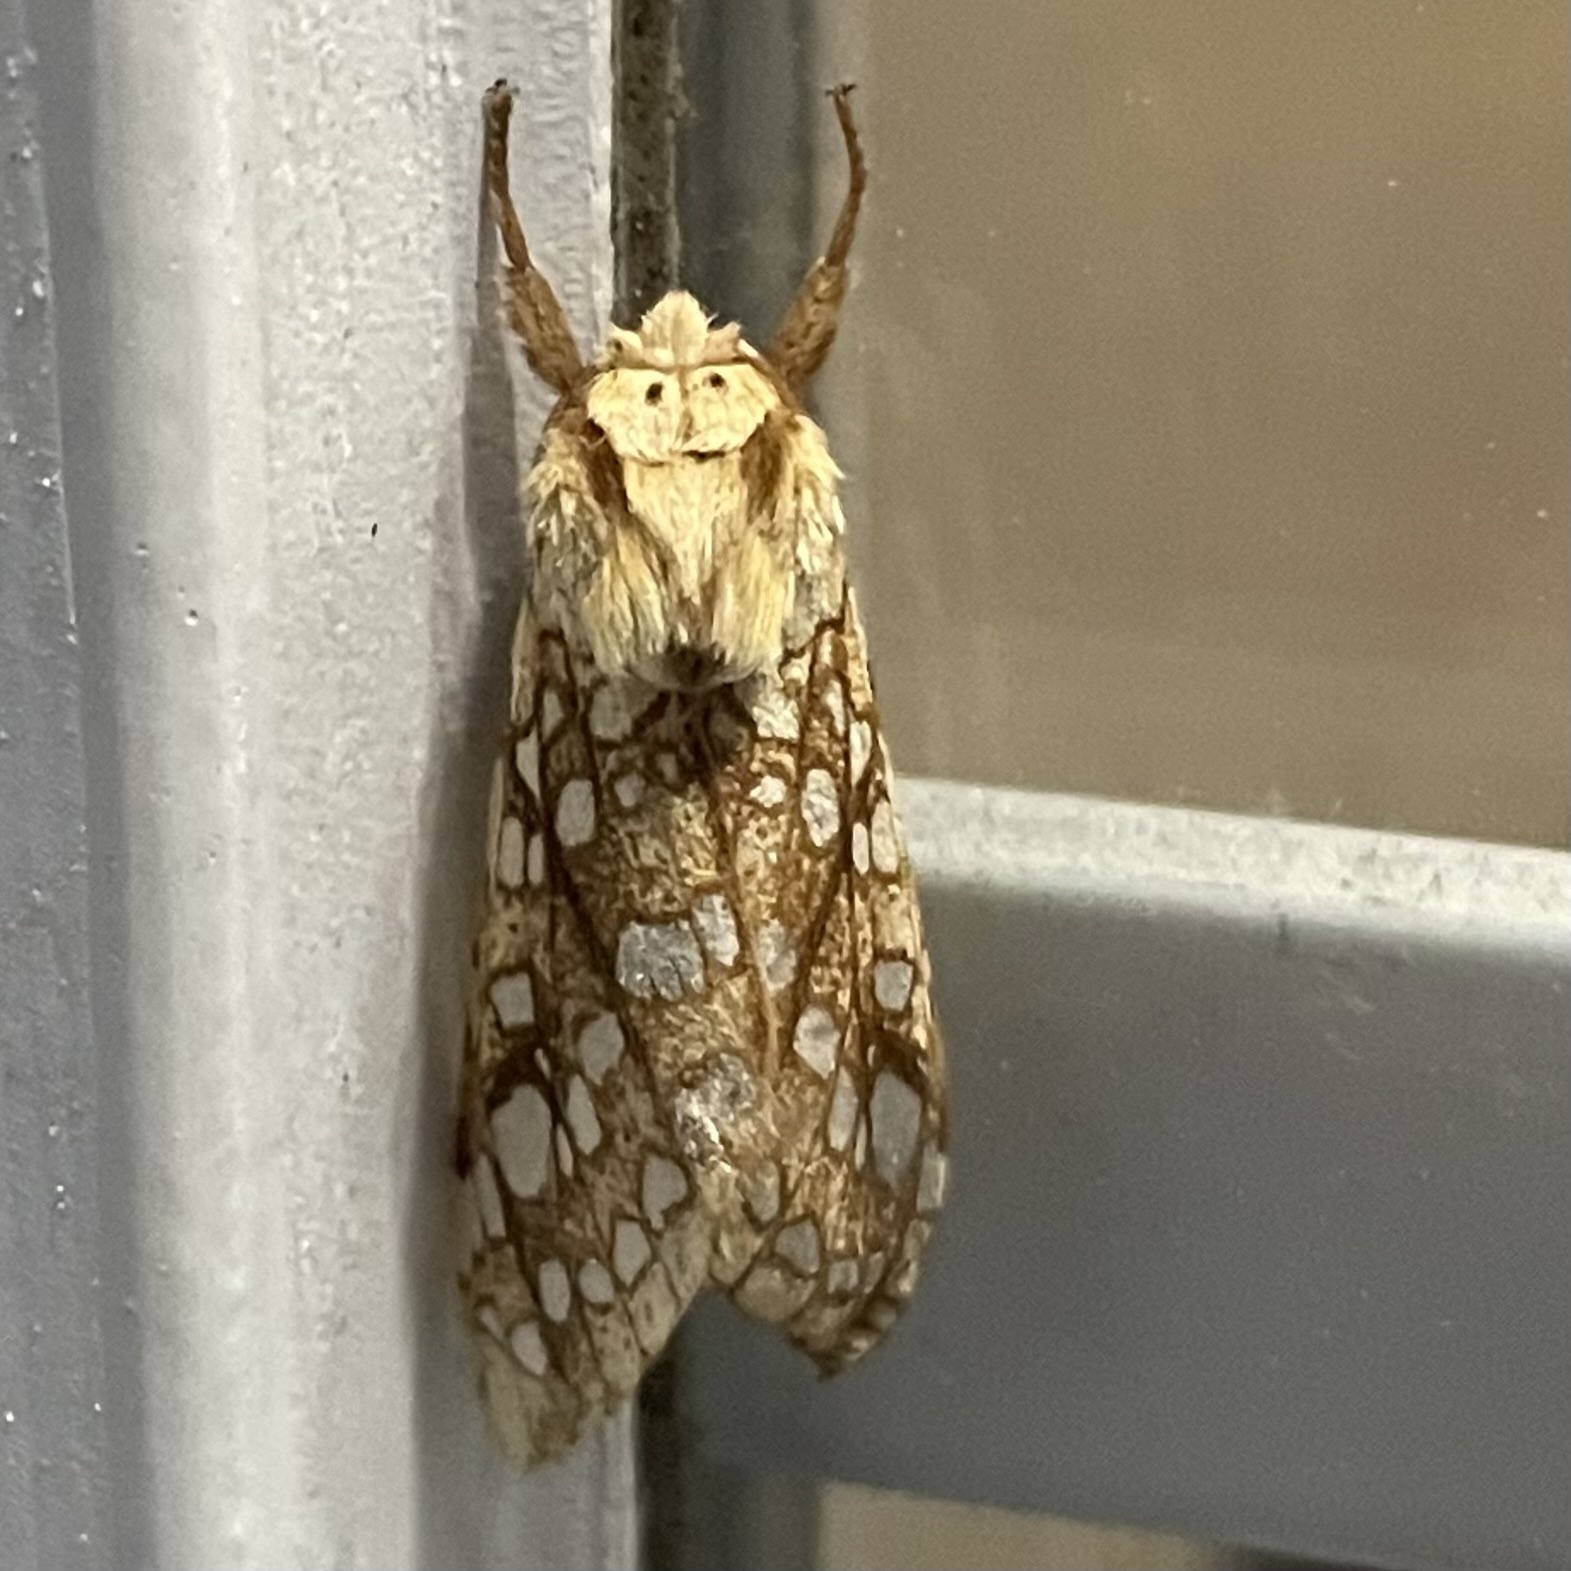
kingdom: Animalia
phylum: Arthropoda
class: Insecta
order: Lepidoptera
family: Erebidae
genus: Lophocampa
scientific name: Lophocampa caryae
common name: Hickory tussock moth
